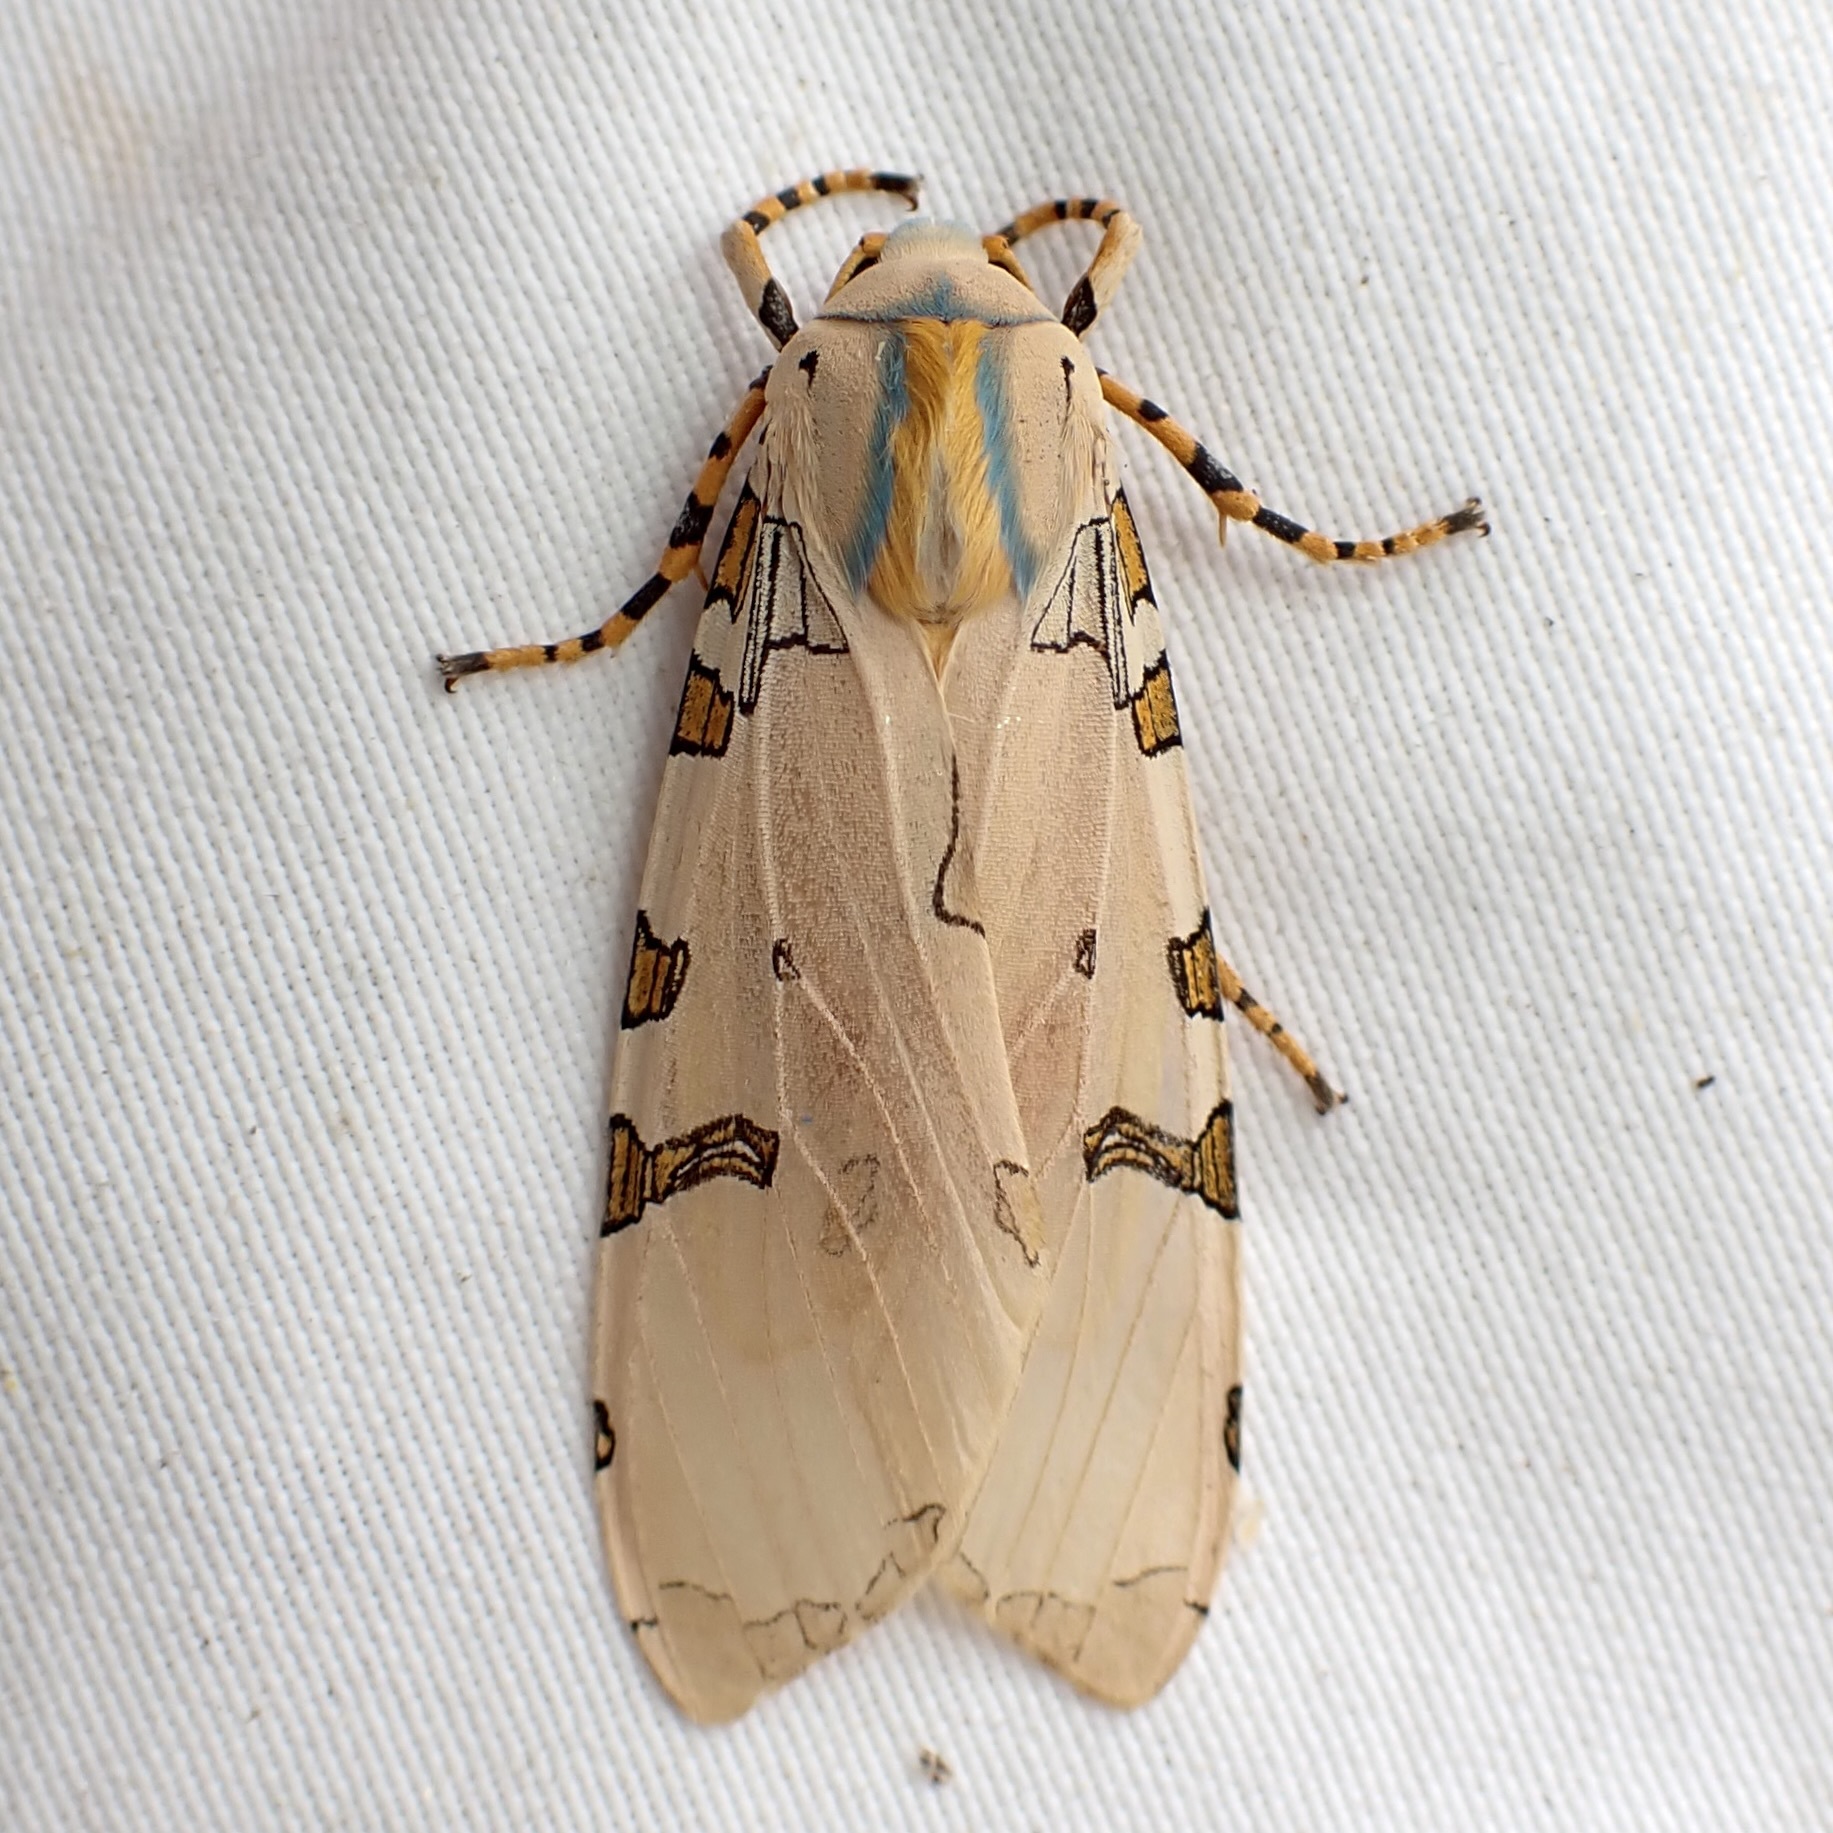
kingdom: Animalia
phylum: Arthropoda
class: Insecta
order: Lepidoptera
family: Erebidae
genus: Halysidota
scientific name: Halysidota davisii
